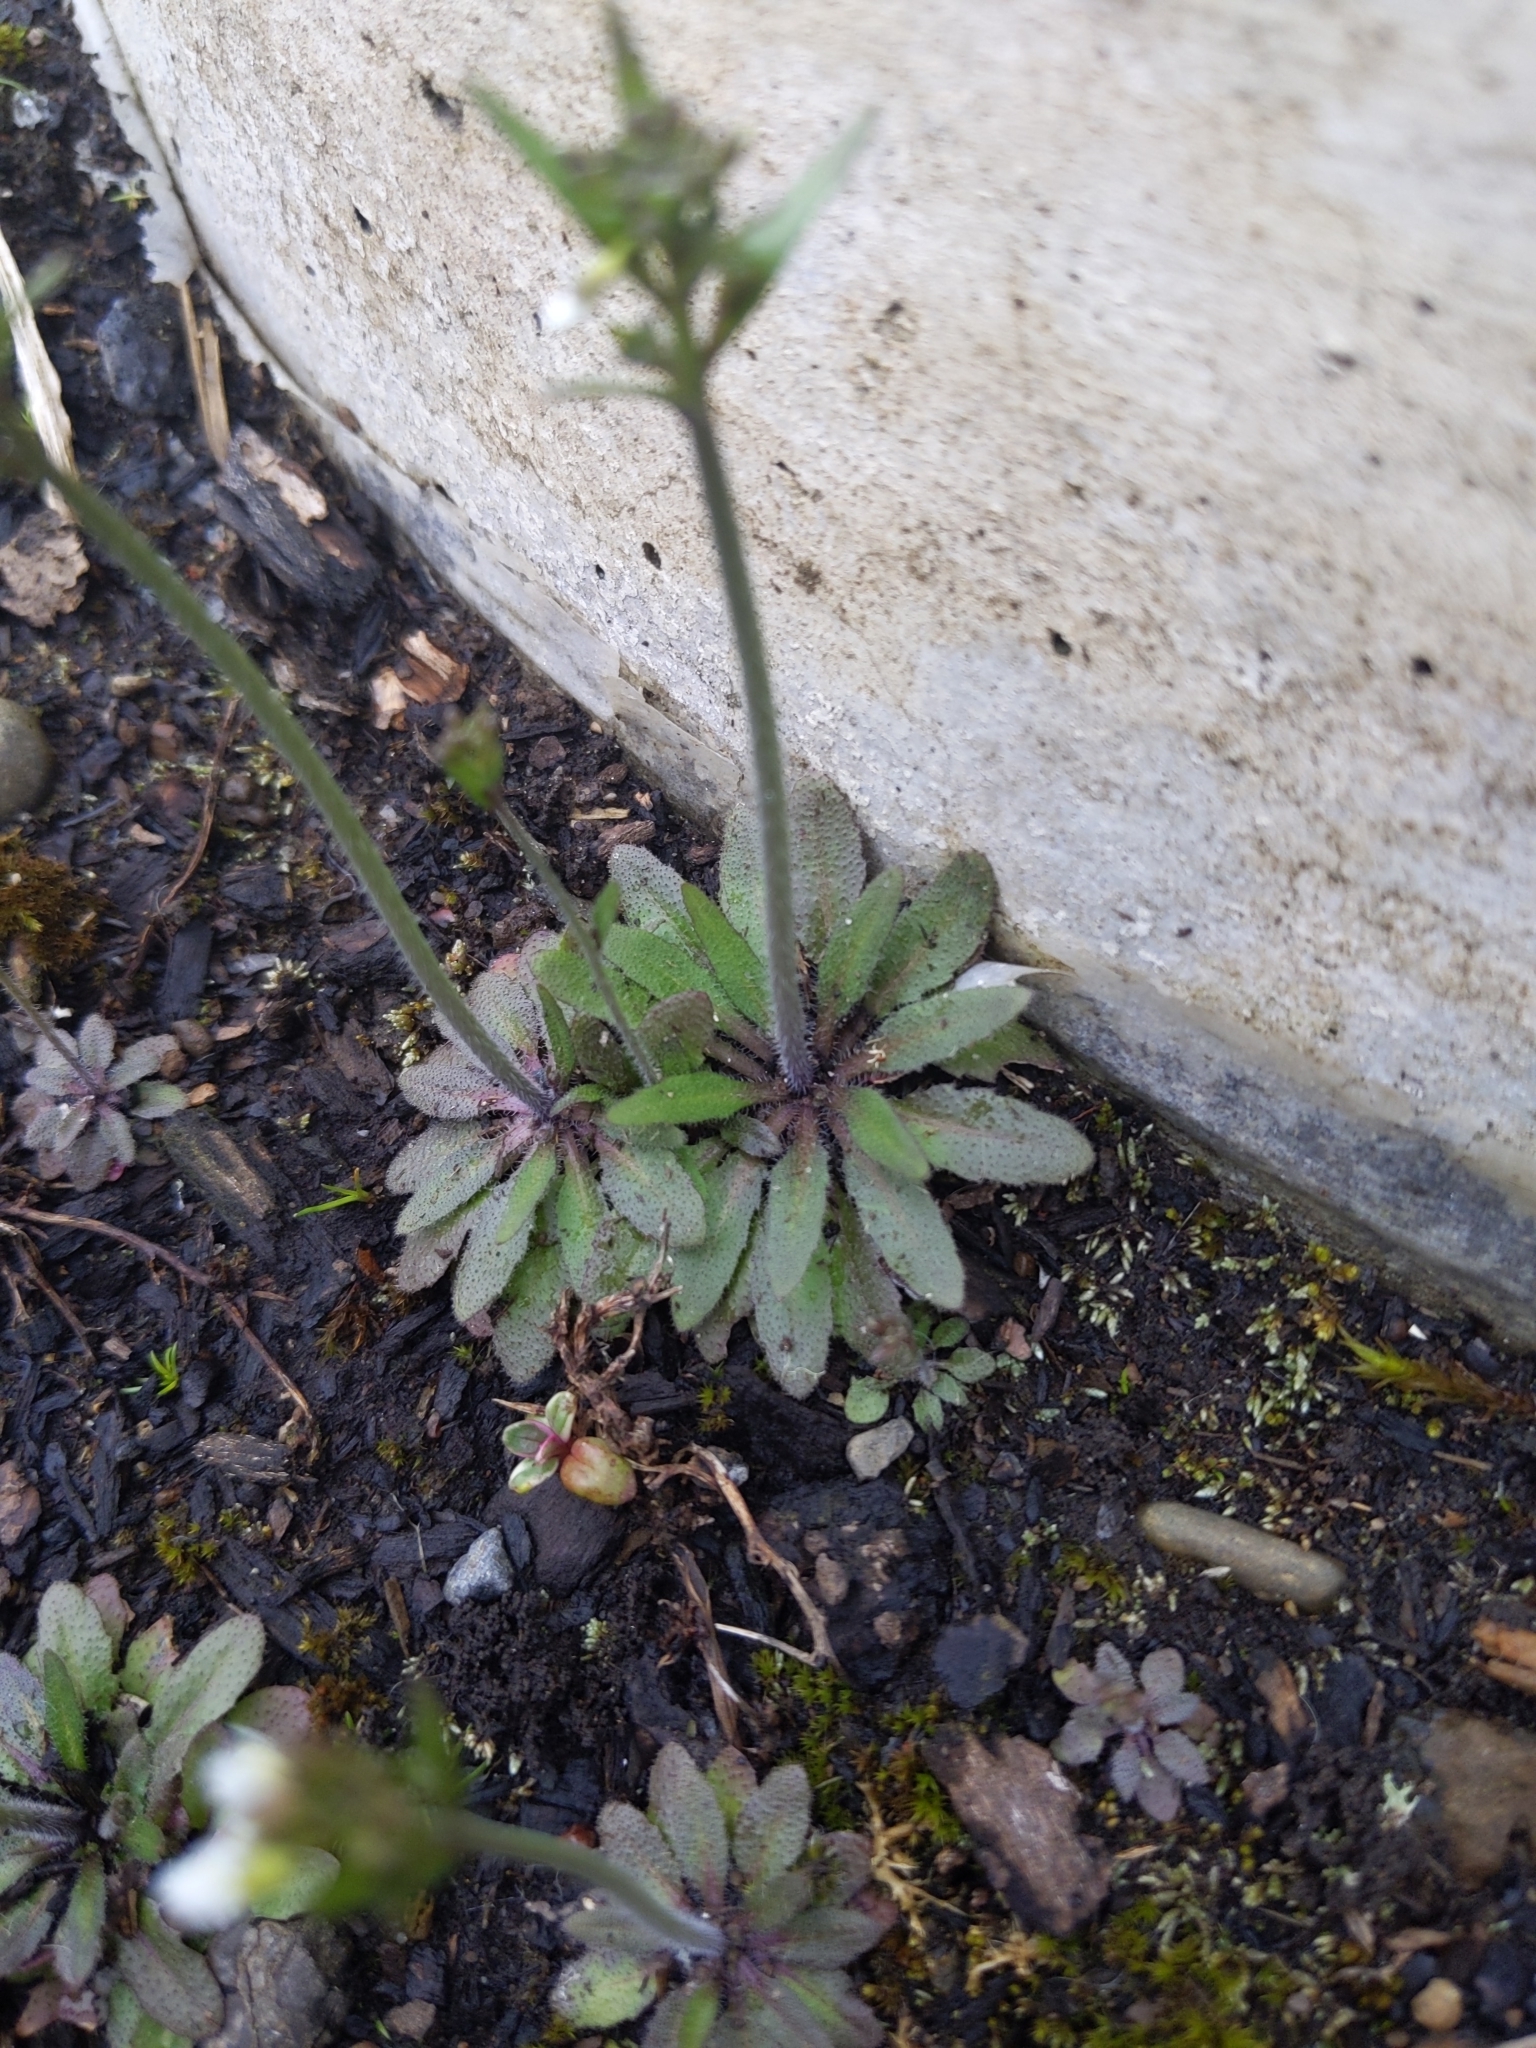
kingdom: Plantae
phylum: Tracheophyta
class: Magnoliopsida
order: Brassicales
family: Brassicaceae
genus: Arabidopsis
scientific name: Arabidopsis thaliana
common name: Thale cress
